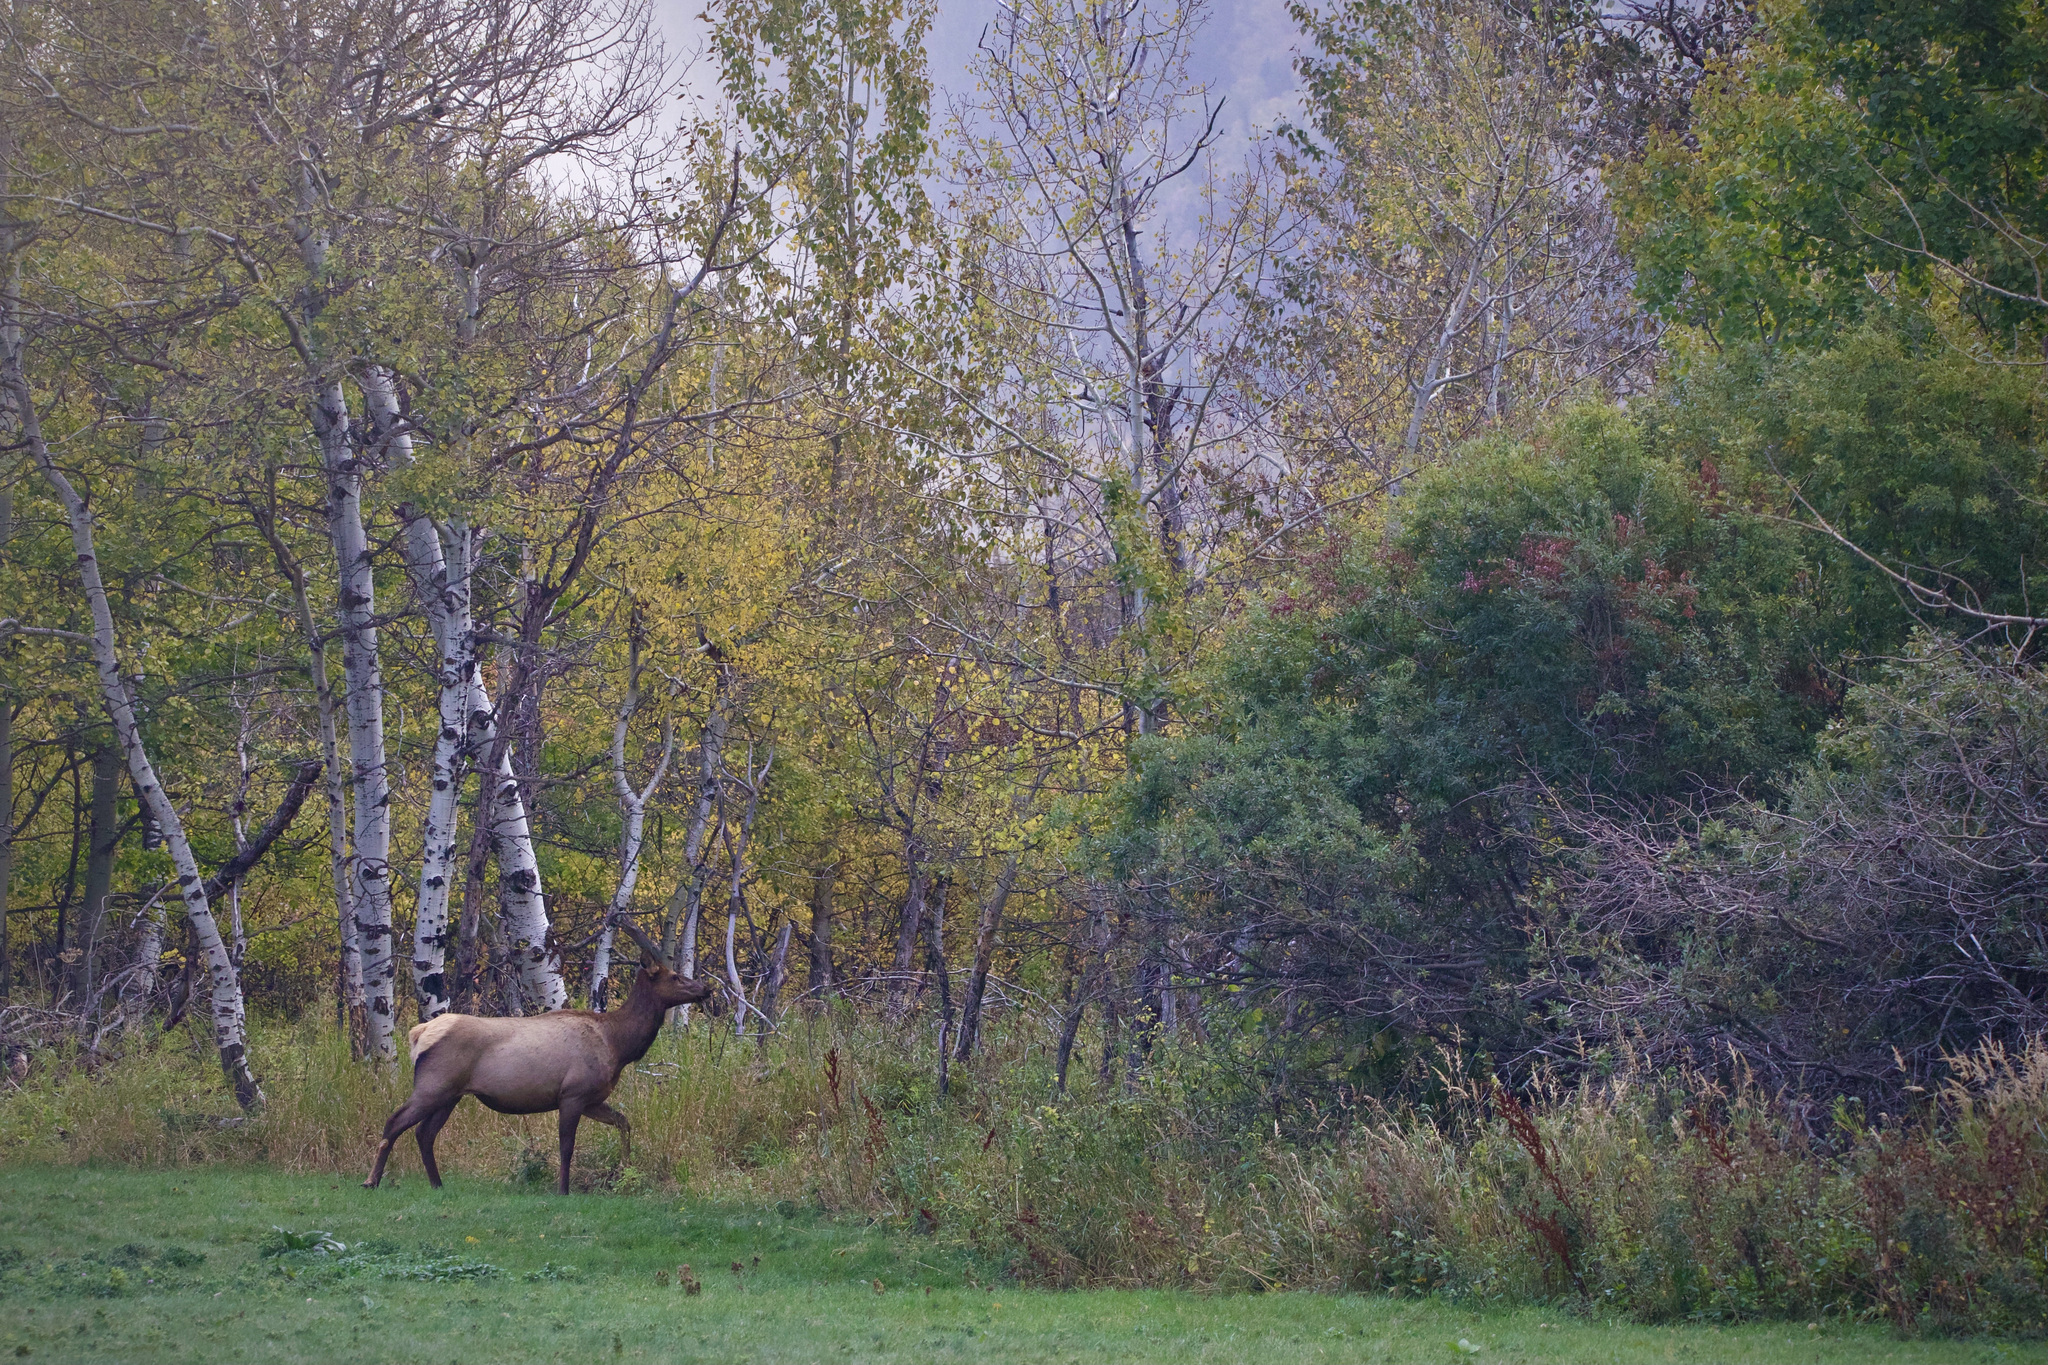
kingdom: Animalia
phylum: Chordata
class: Mammalia
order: Artiodactyla
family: Cervidae
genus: Cervus
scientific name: Cervus elaphus
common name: Red deer
